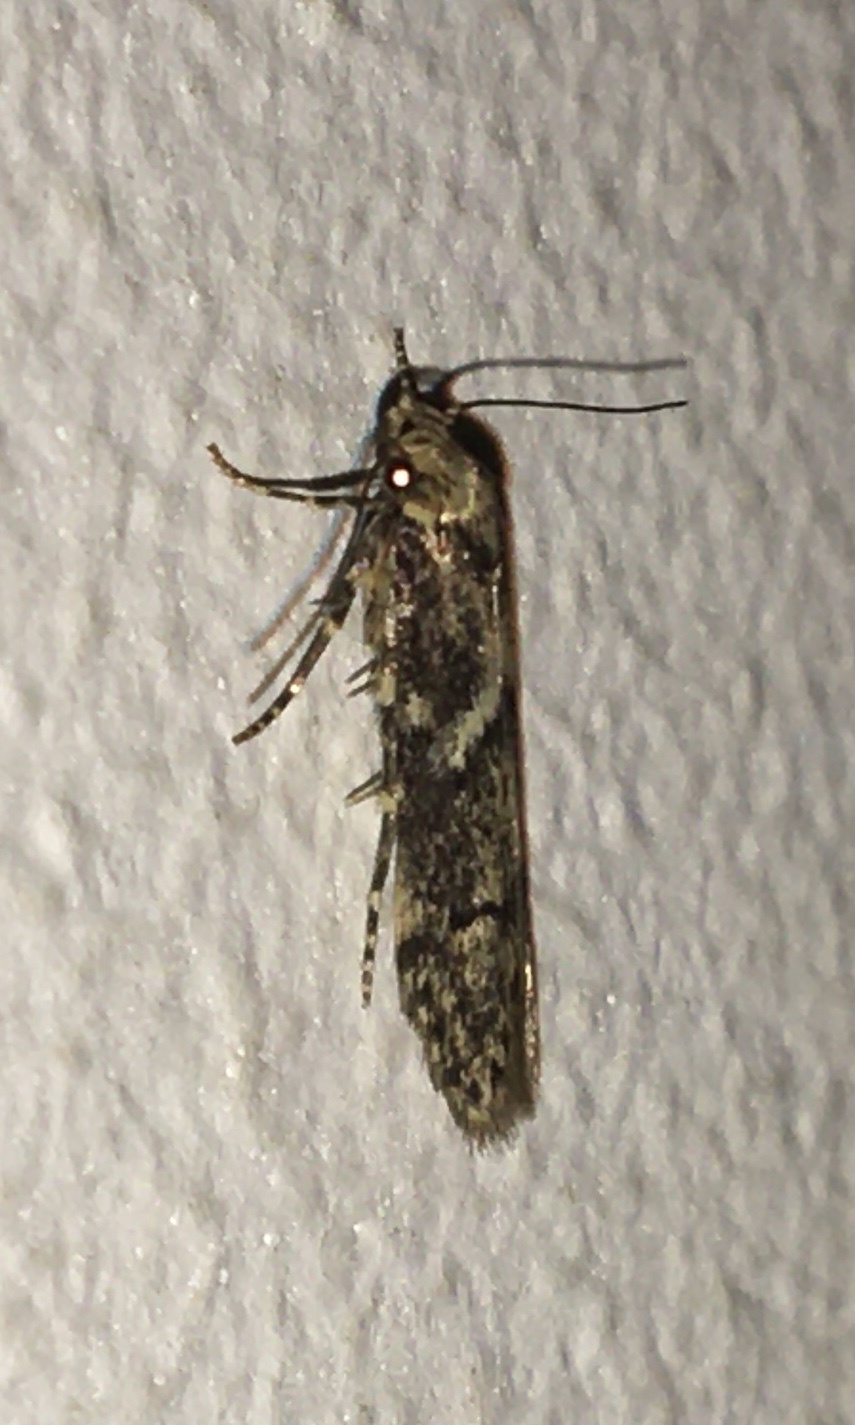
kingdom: Animalia
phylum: Arthropoda
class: Insecta
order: Lepidoptera
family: Blastobasidae
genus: Blastobasis
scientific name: Blastobasis adustella
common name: Dingy dowd
